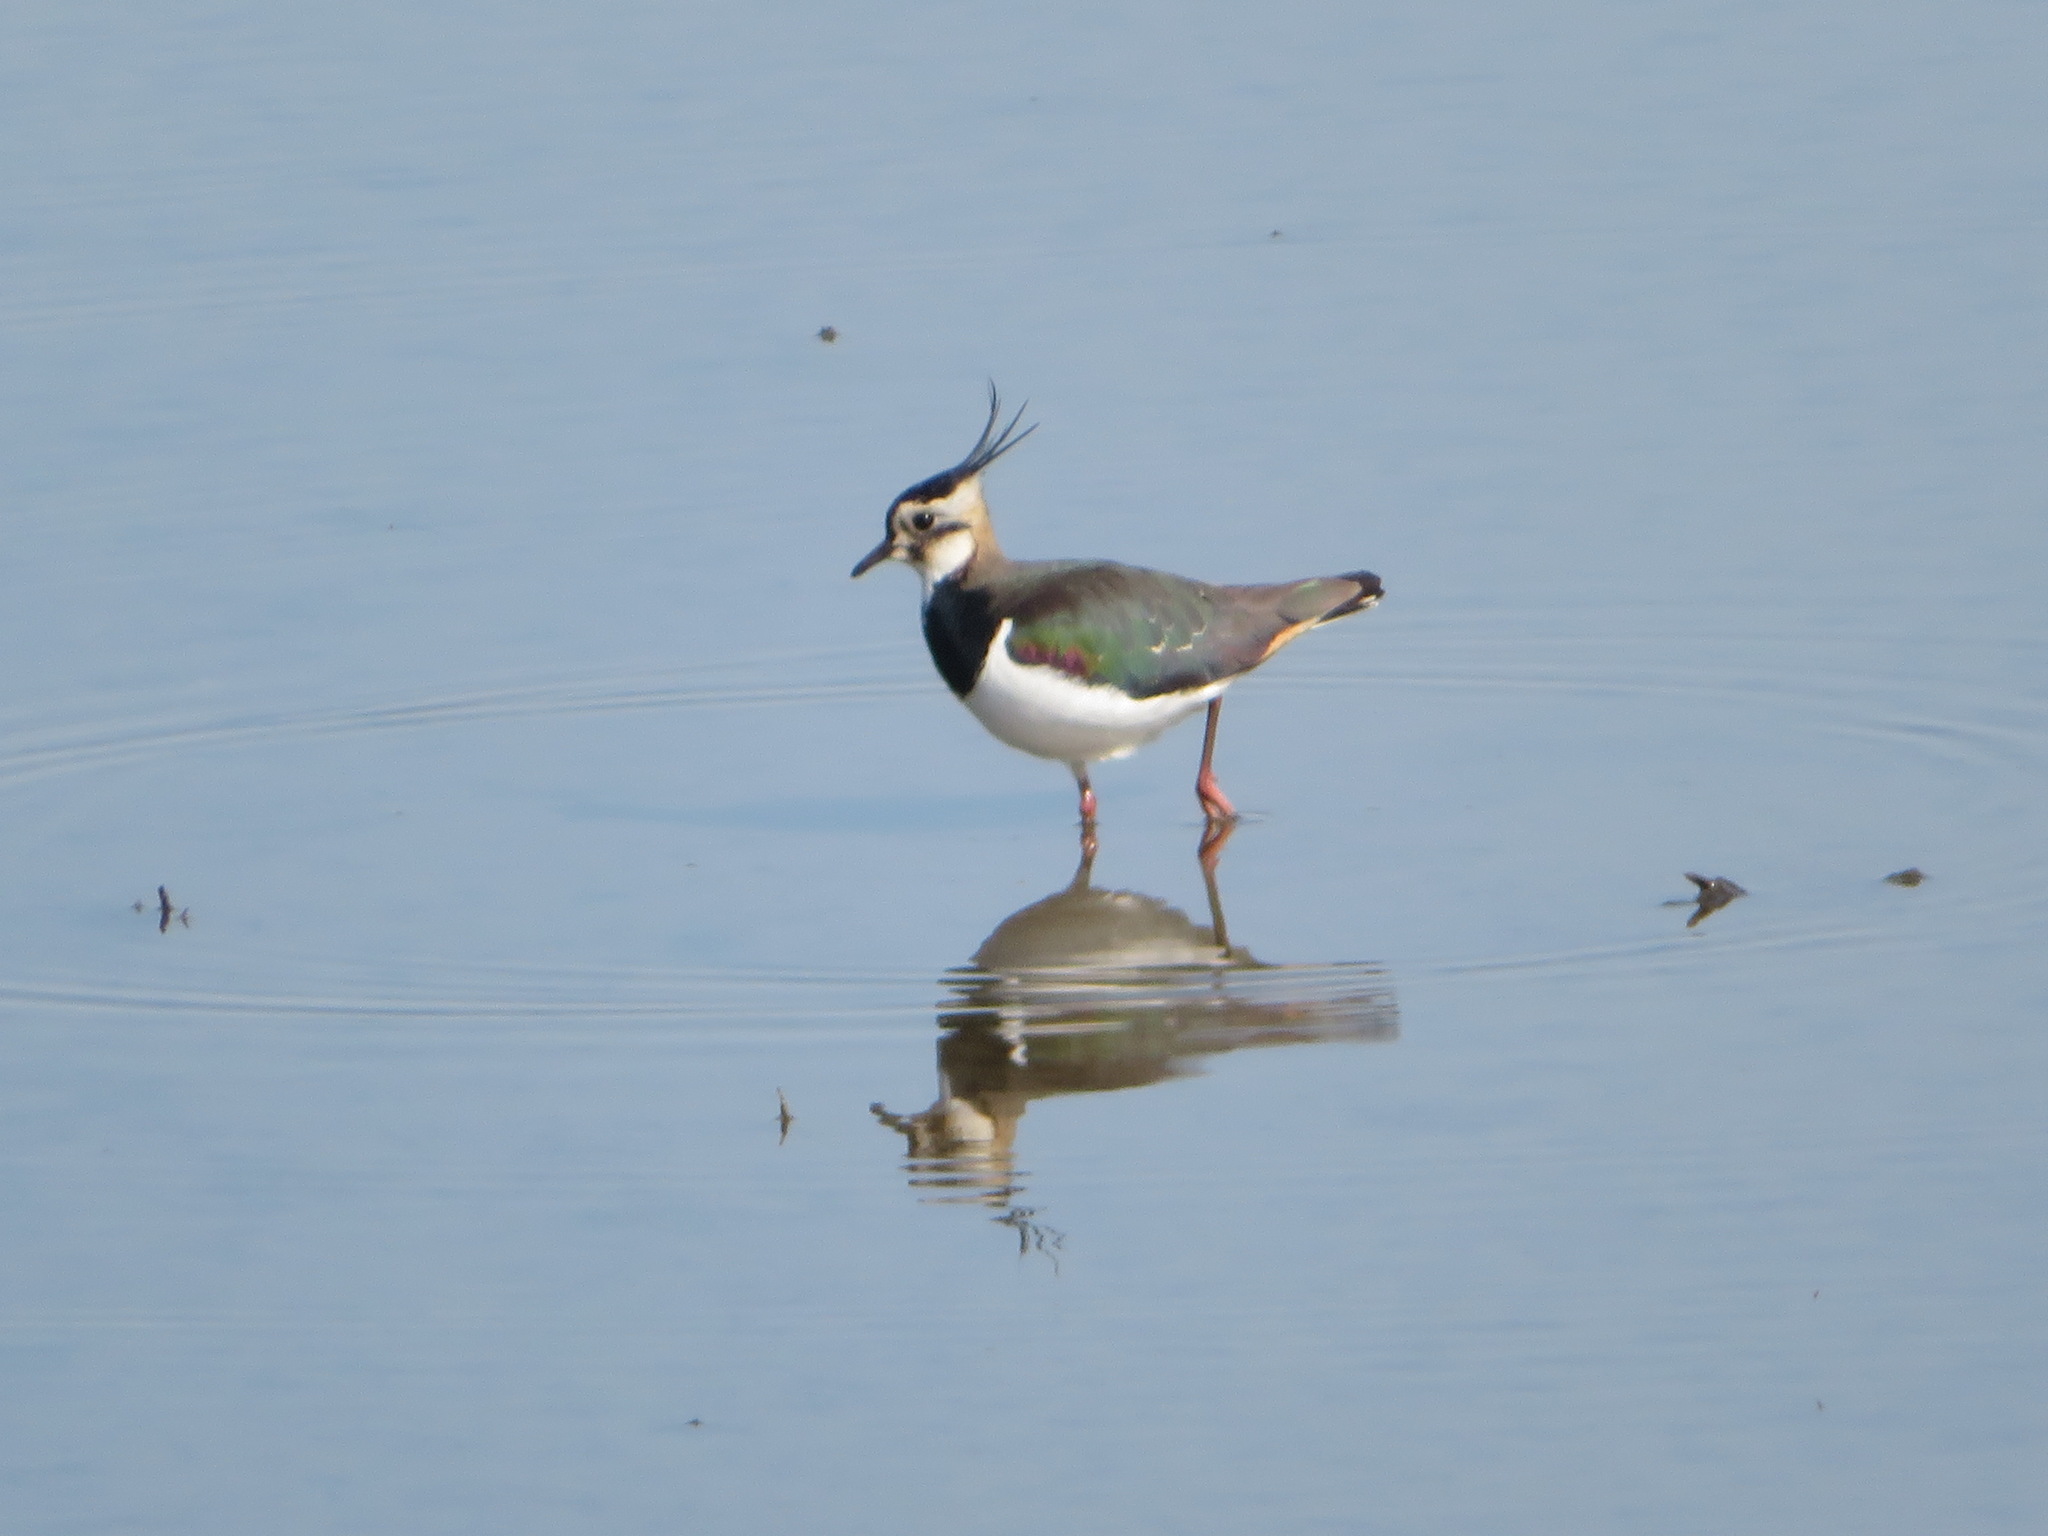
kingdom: Animalia
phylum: Chordata
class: Aves
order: Charadriiformes
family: Charadriidae
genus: Vanellus
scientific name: Vanellus vanellus
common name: Northern lapwing
